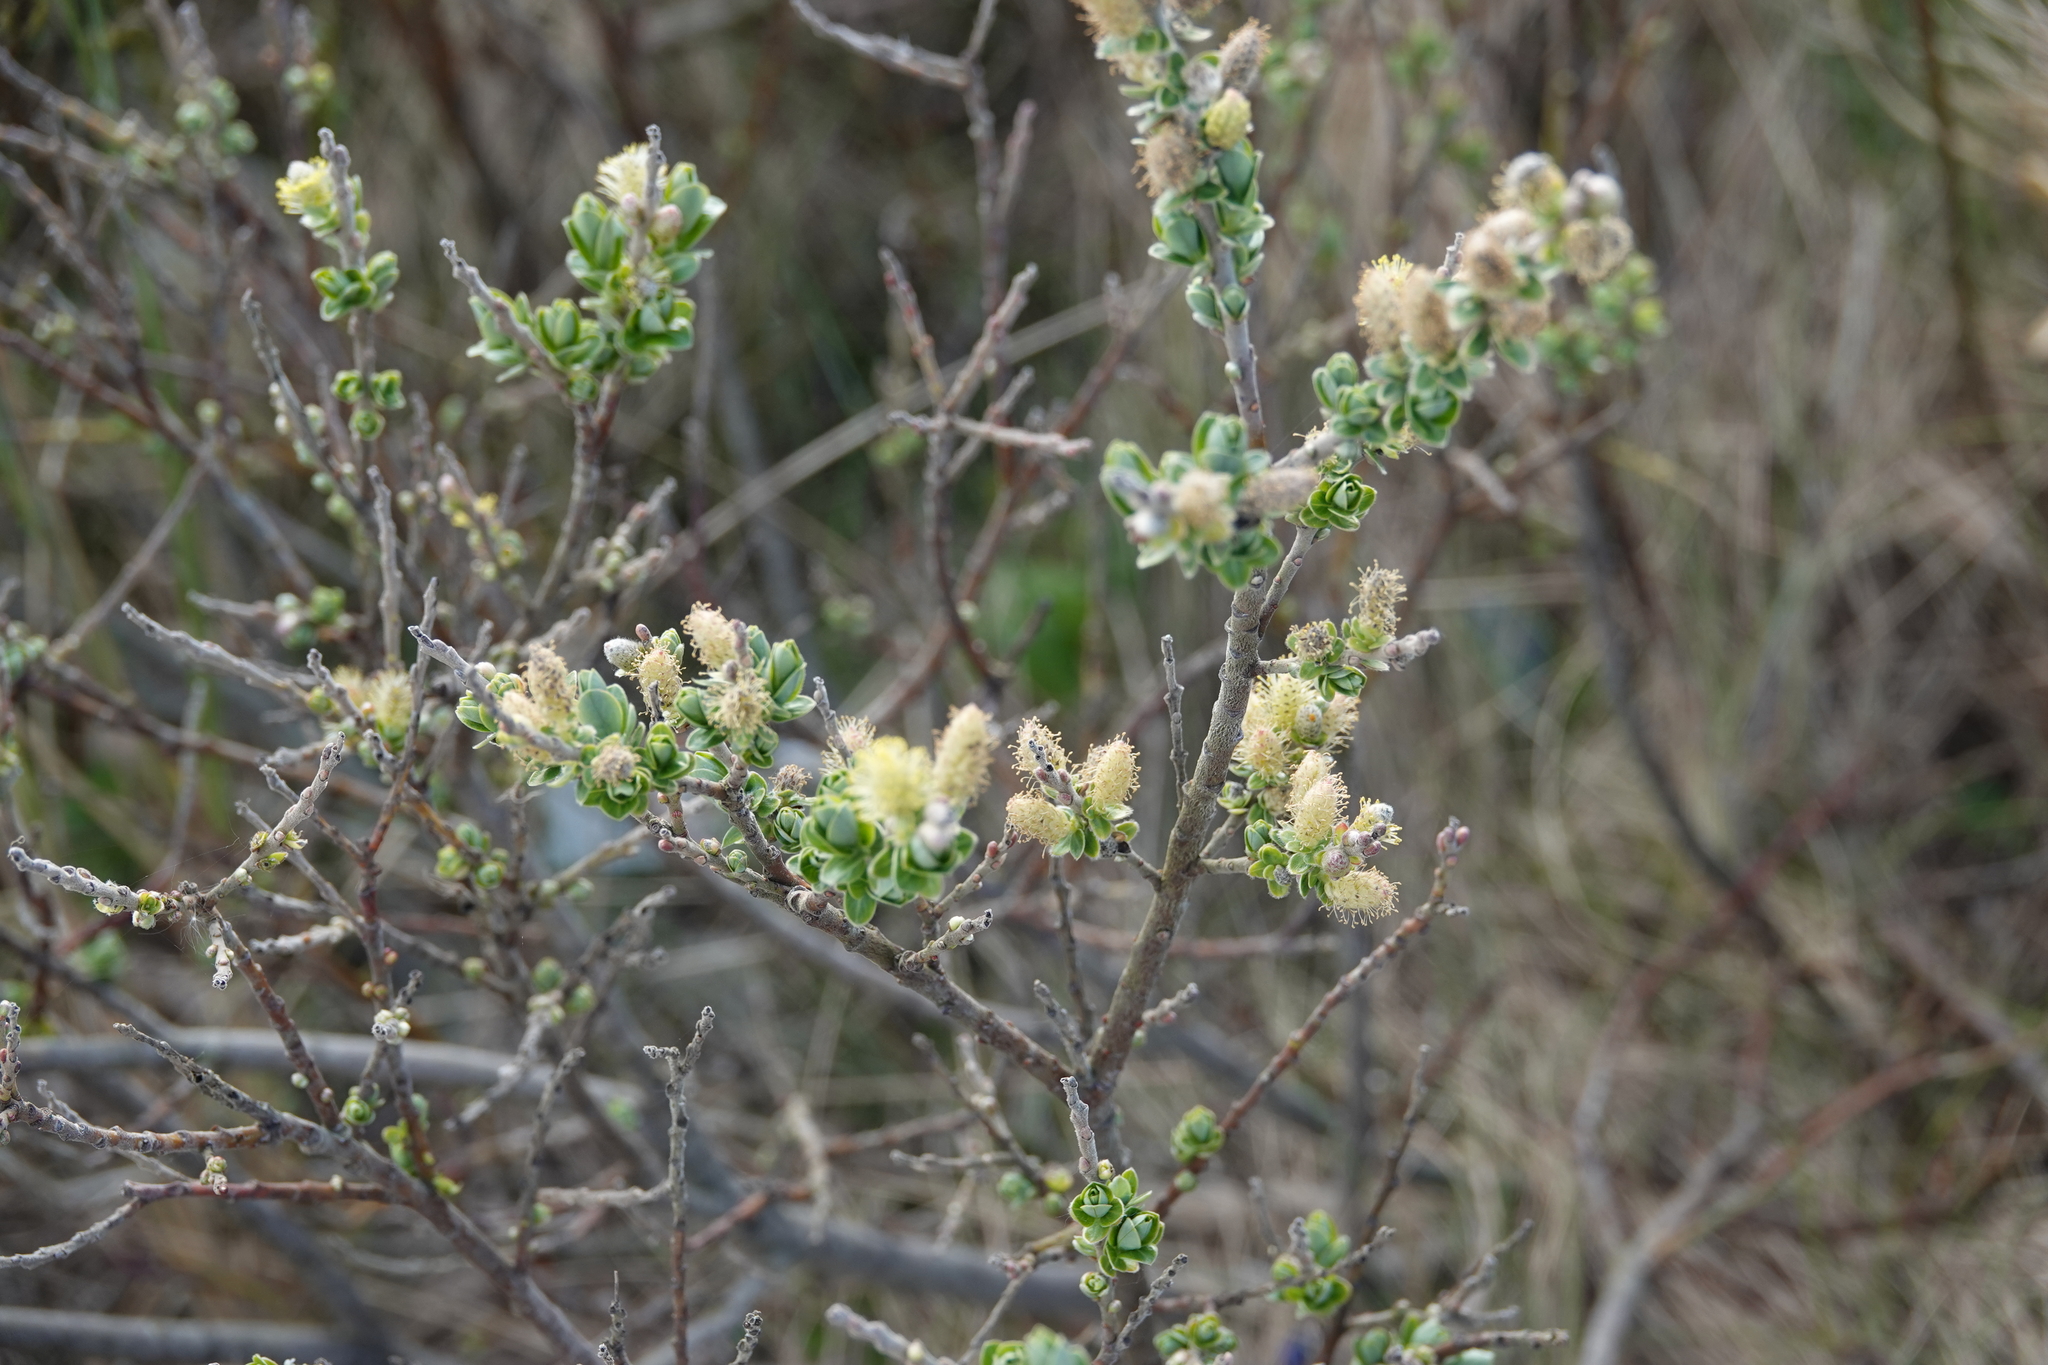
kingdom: Plantae
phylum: Tracheophyta
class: Magnoliopsida
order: Malpighiales
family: Salicaceae
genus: Salix
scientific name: Salix repens
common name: Creeping willow
